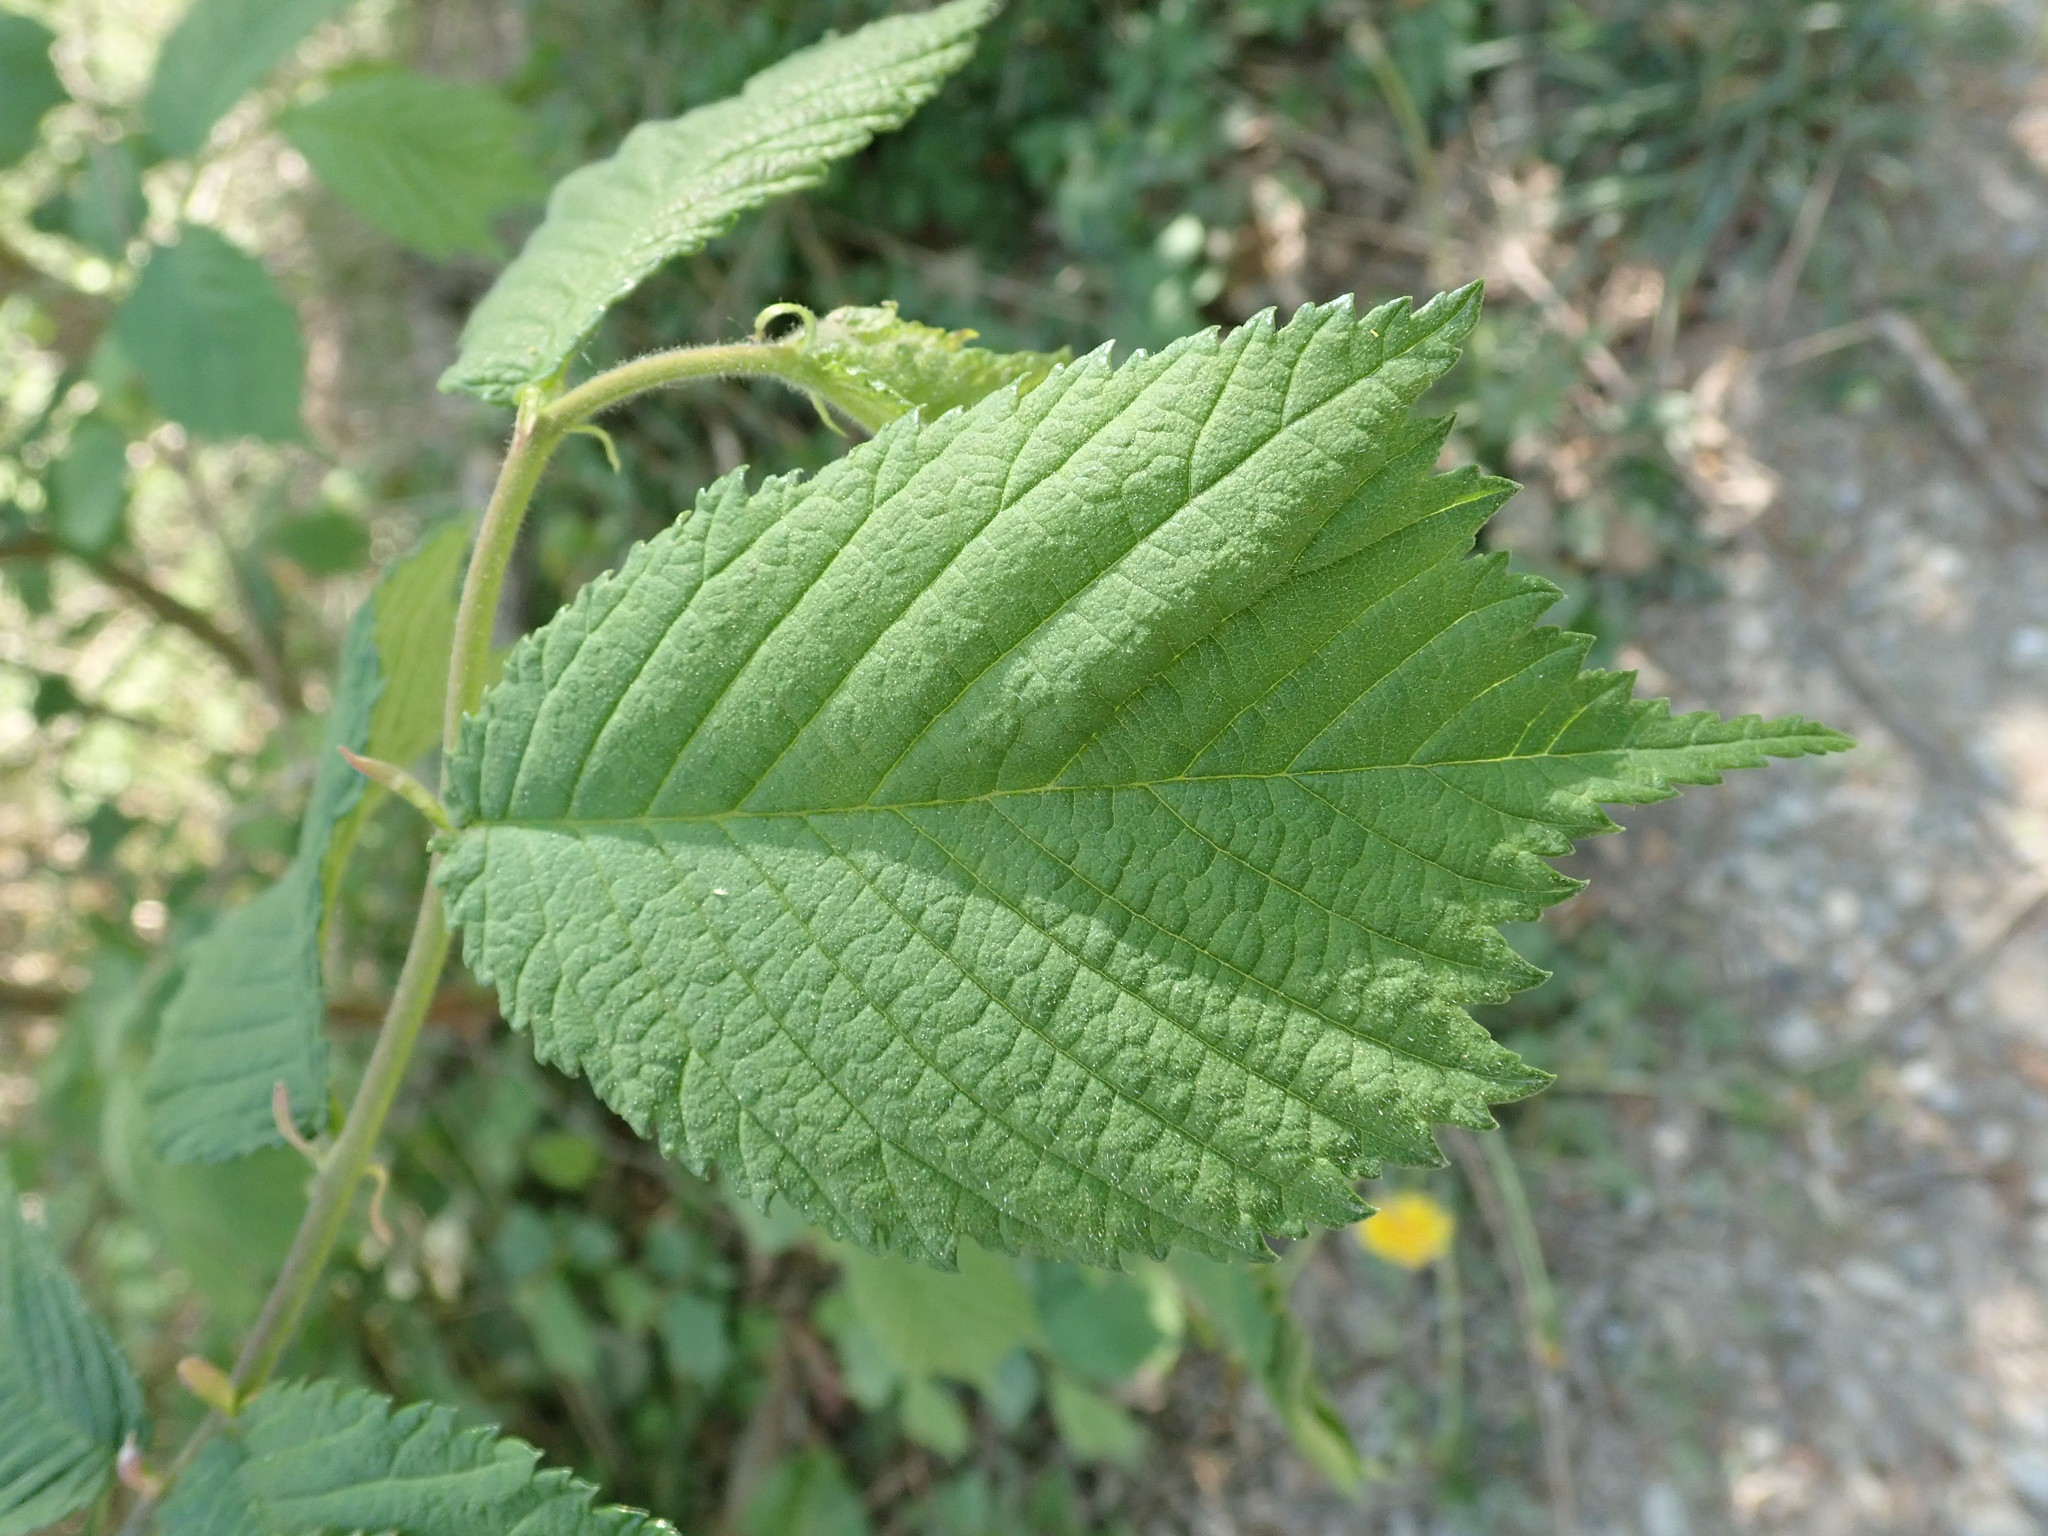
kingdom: Plantae
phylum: Tracheophyta
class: Magnoliopsida
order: Rosales
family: Ulmaceae
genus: Ulmus
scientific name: Ulmus glabra
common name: Wych elm
